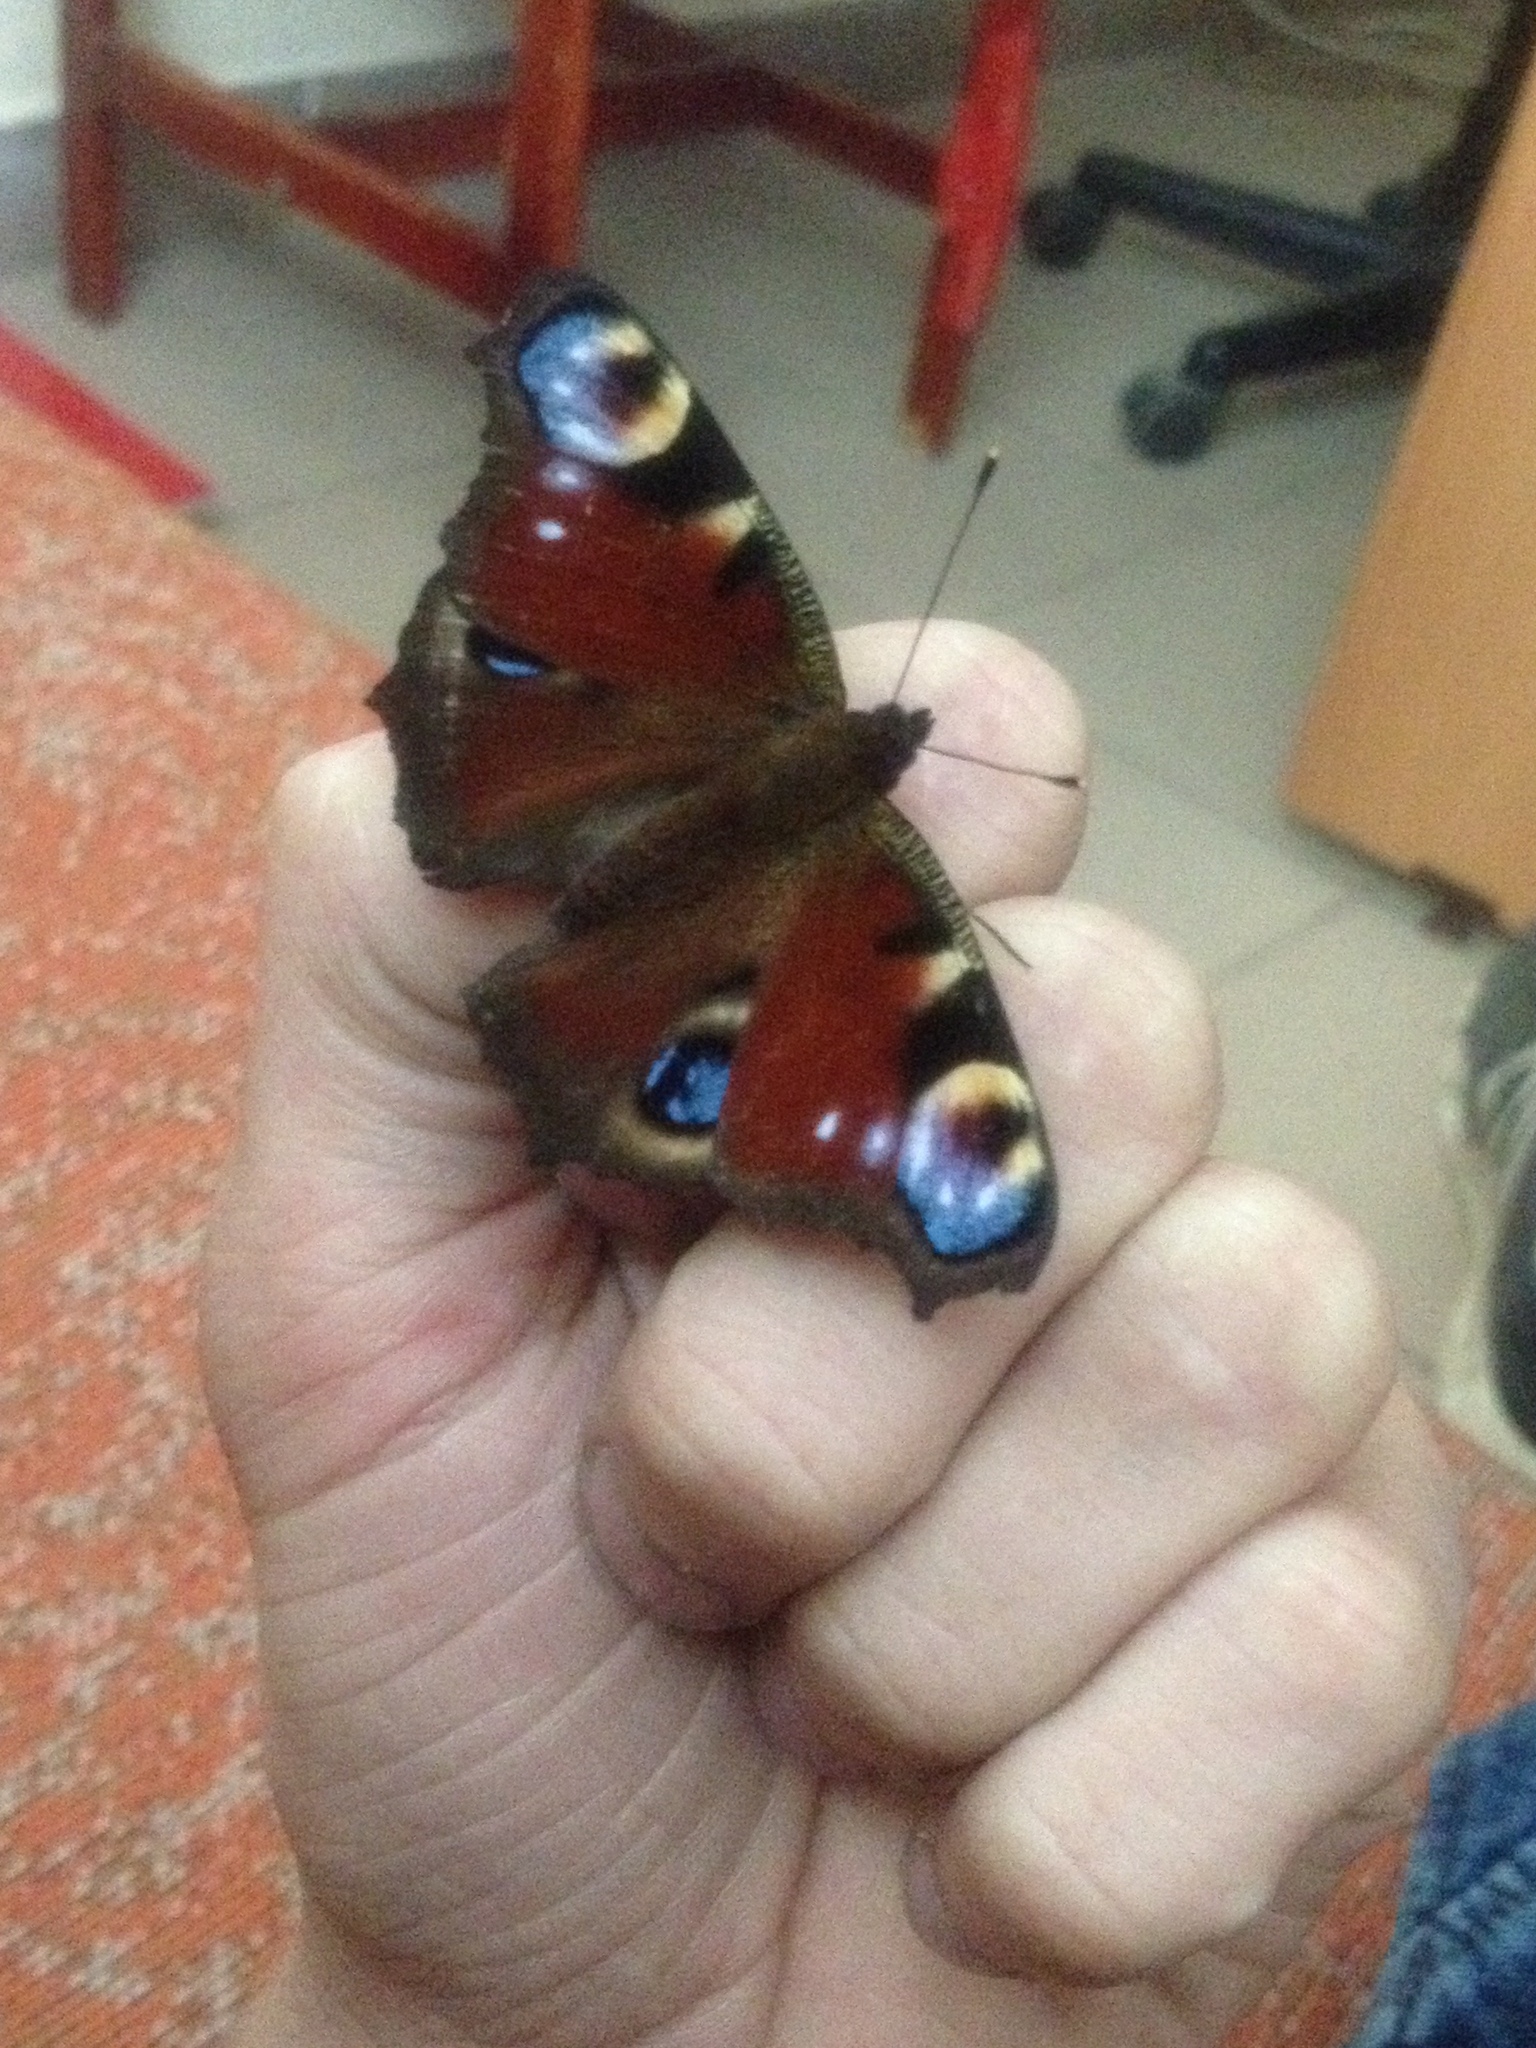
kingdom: Animalia
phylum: Arthropoda
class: Insecta
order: Lepidoptera
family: Nymphalidae
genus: Aglais
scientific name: Aglais io
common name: Peacock
